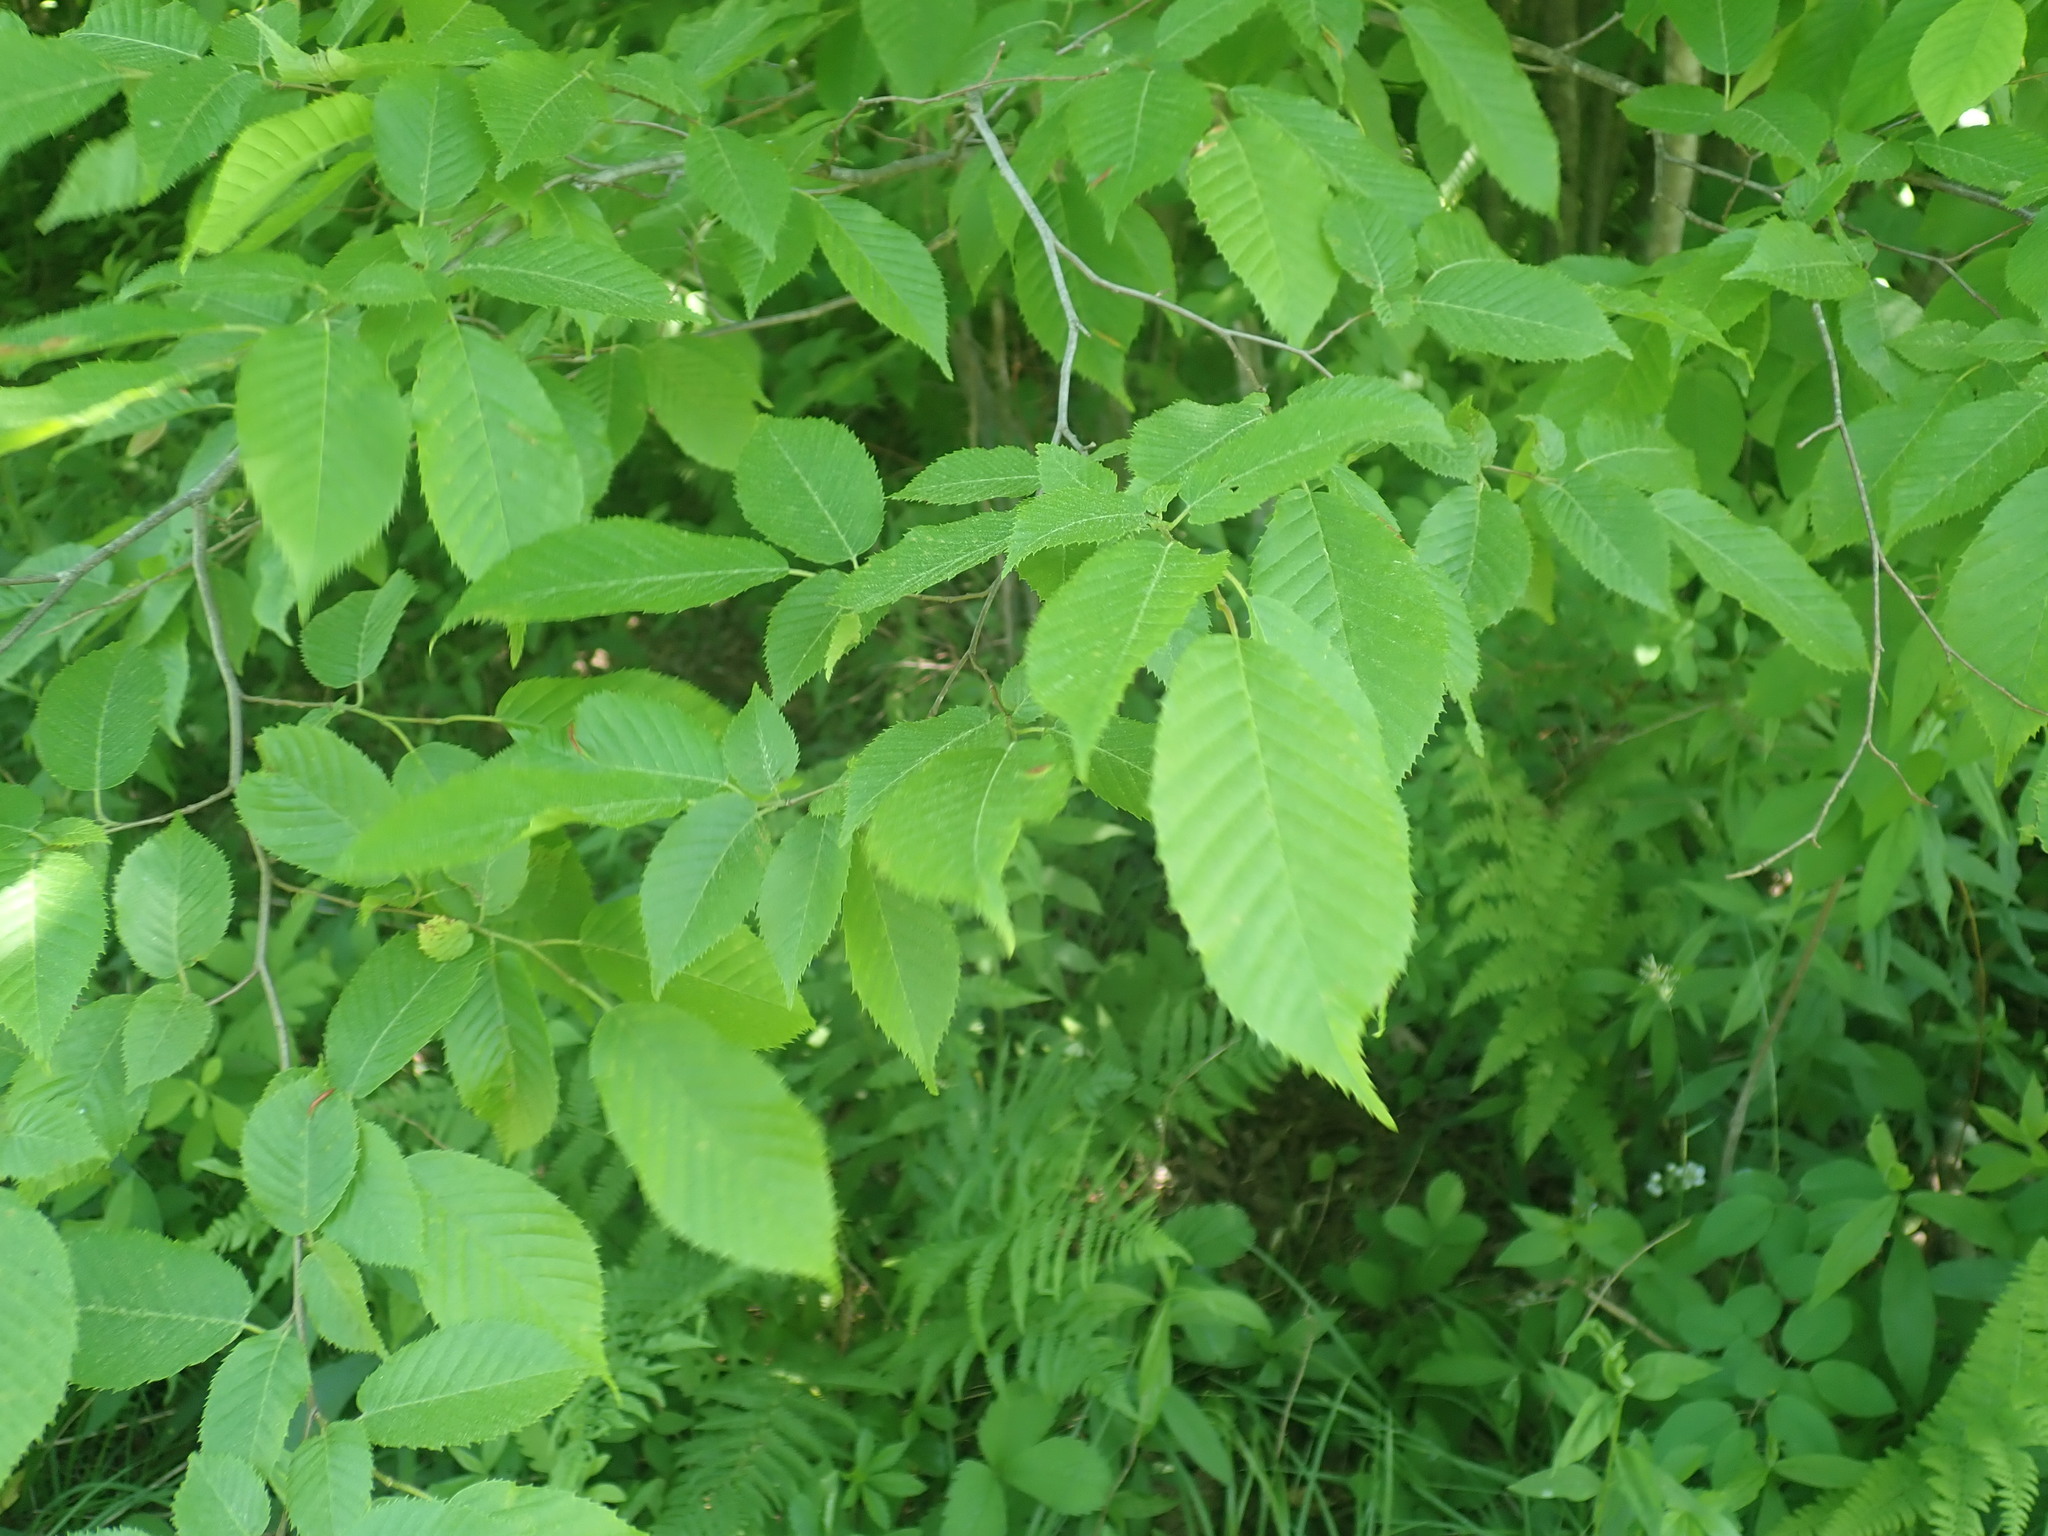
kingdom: Plantae
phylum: Tracheophyta
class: Magnoliopsida
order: Fagales
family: Betulaceae
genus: Carpinus
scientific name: Carpinus caroliniana
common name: American hornbeam
